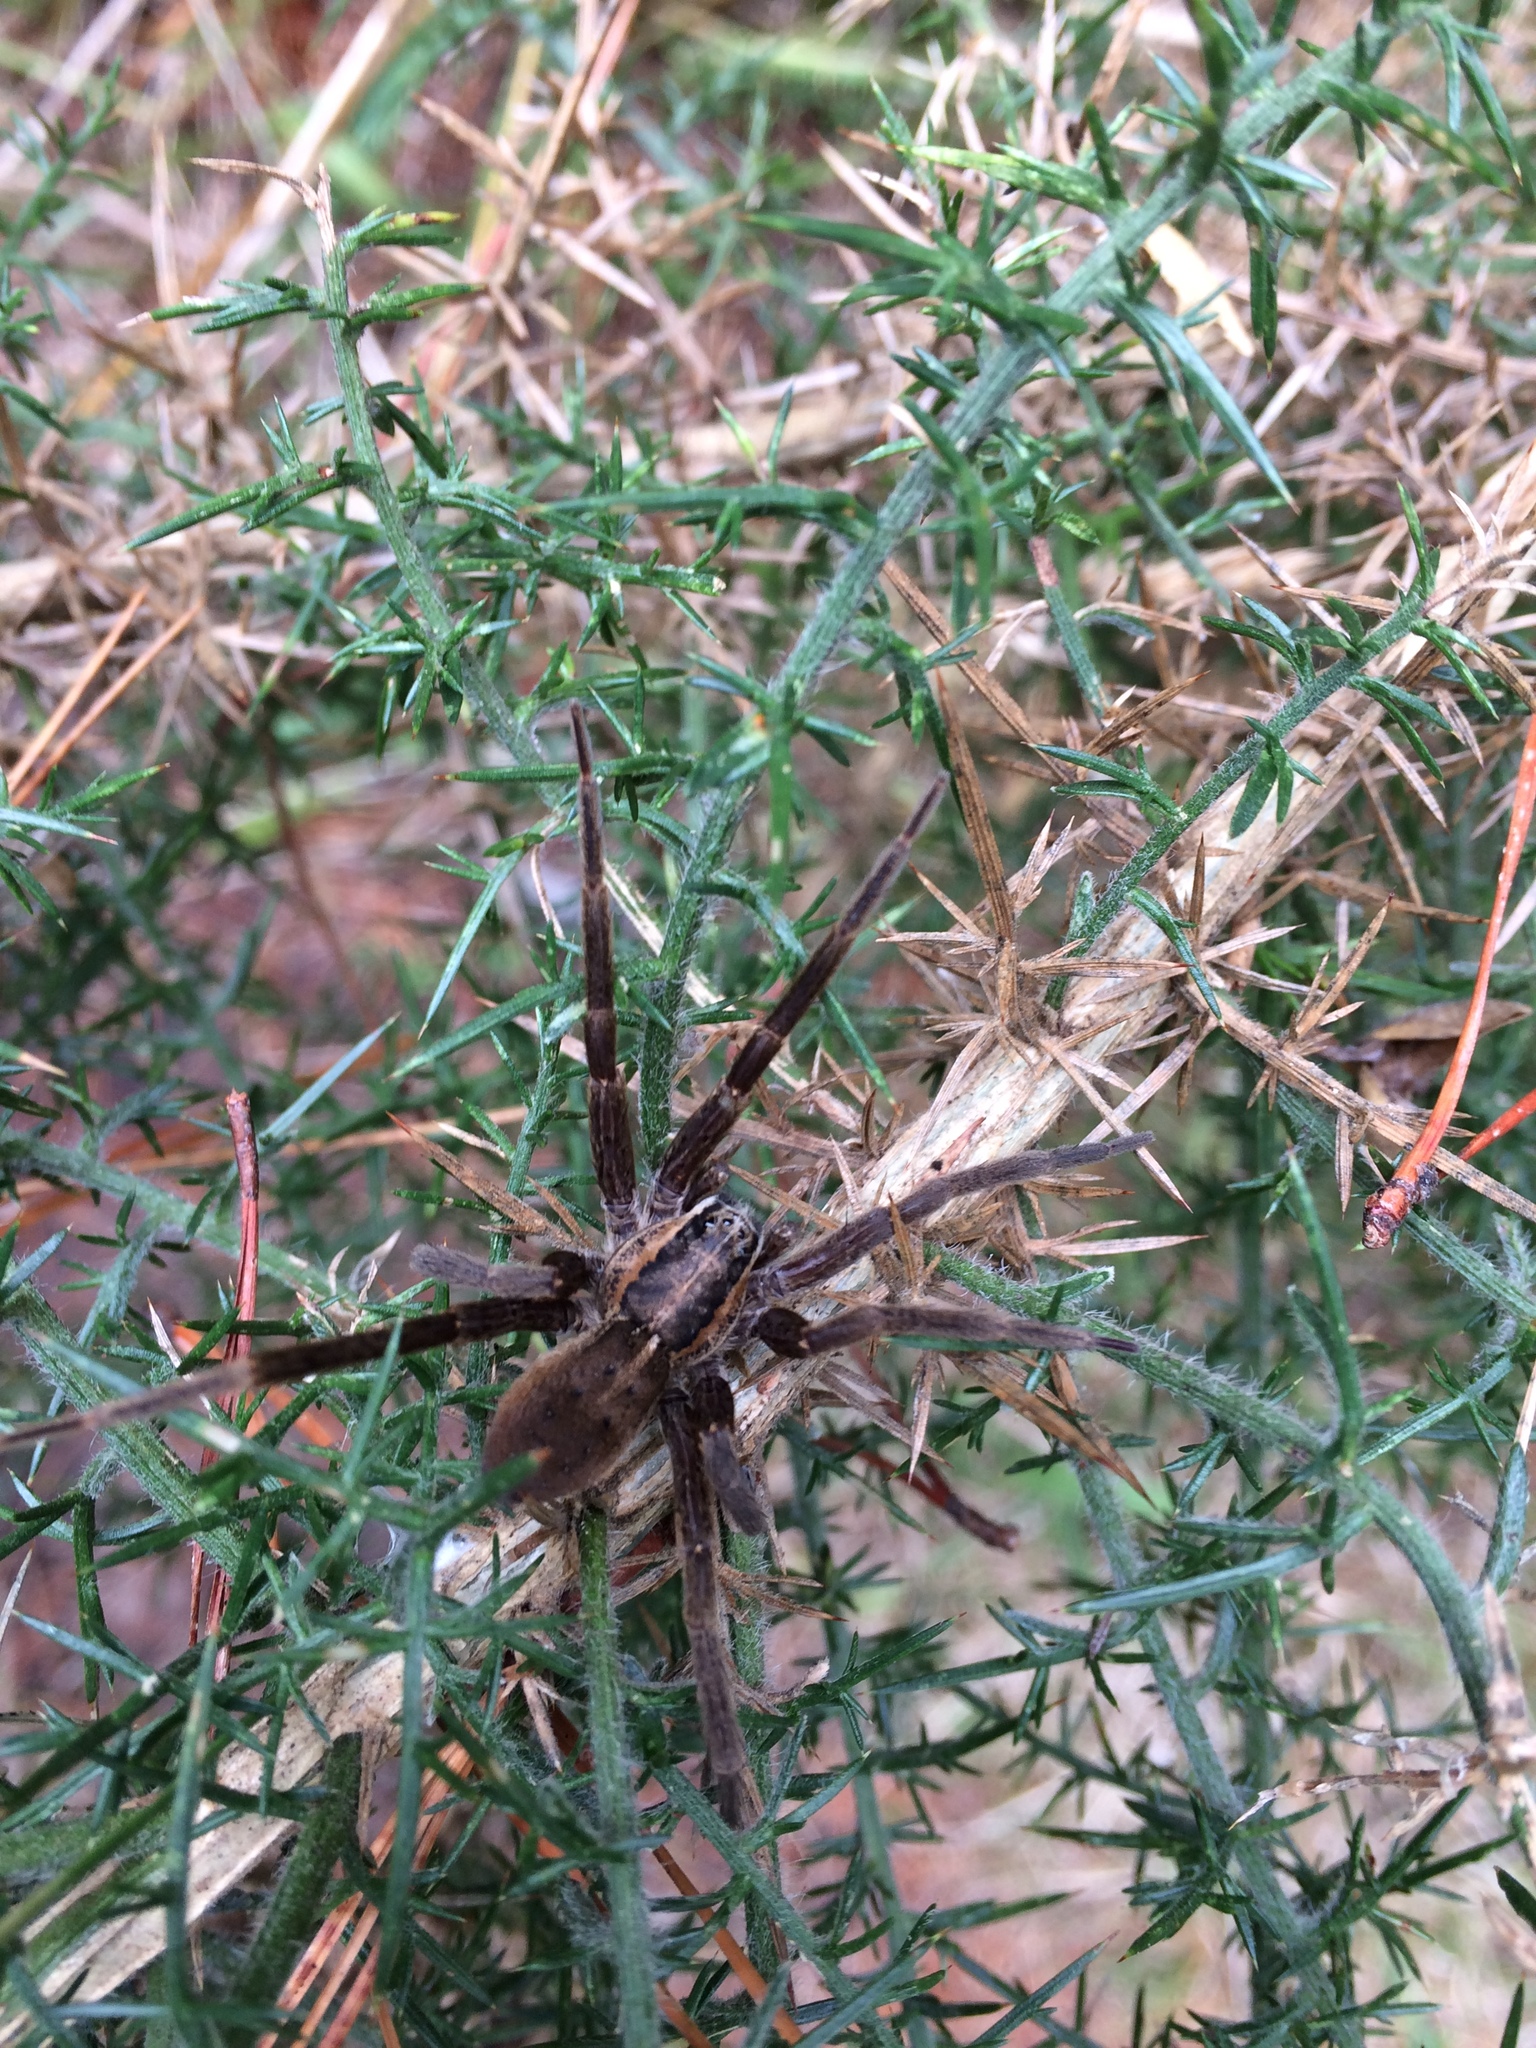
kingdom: Animalia
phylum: Arthropoda
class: Arachnida
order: Araneae
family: Pisauridae
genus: Dolomedes
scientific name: Dolomedes minor
